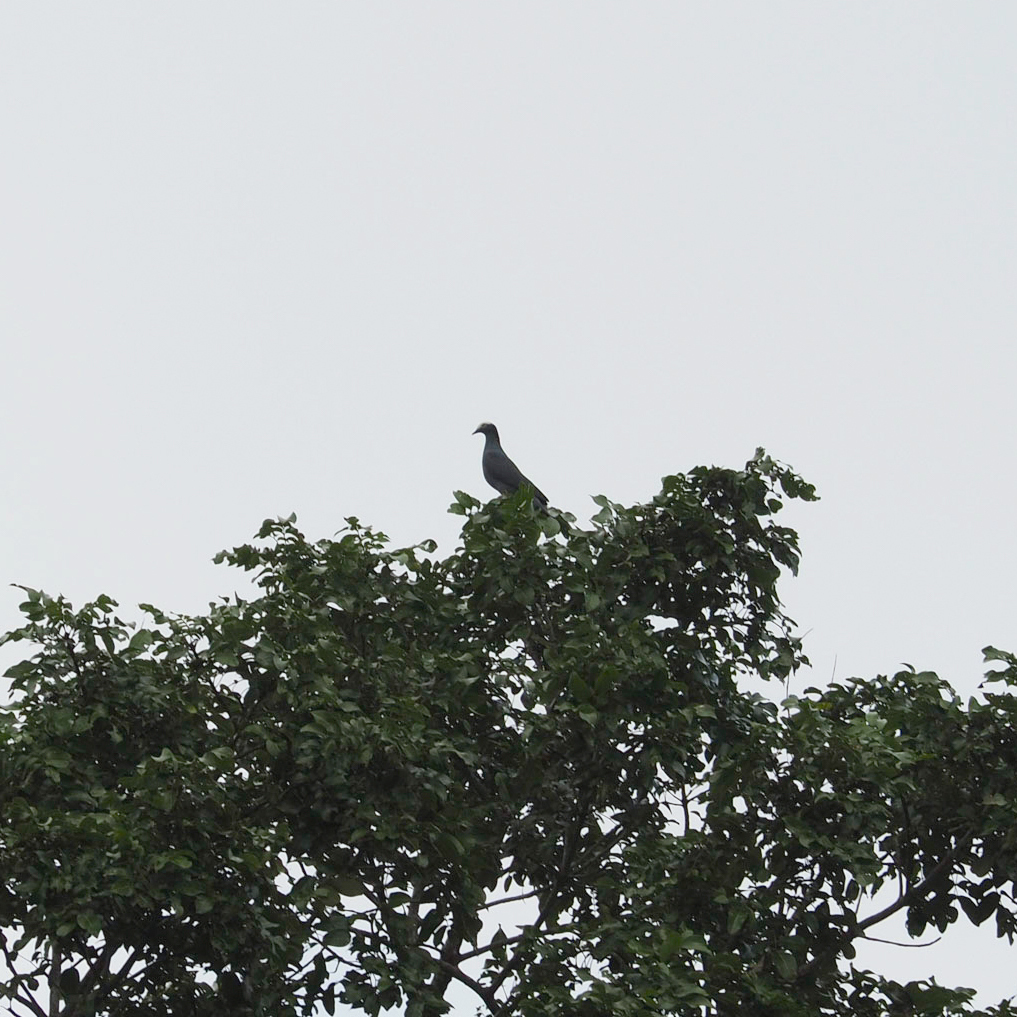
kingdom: Animalia
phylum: Chordata
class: Aves
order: Columbiformes
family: Columbidae
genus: Patagioenas
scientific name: Patagioenas leucocephala
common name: White-crowned pigeon
